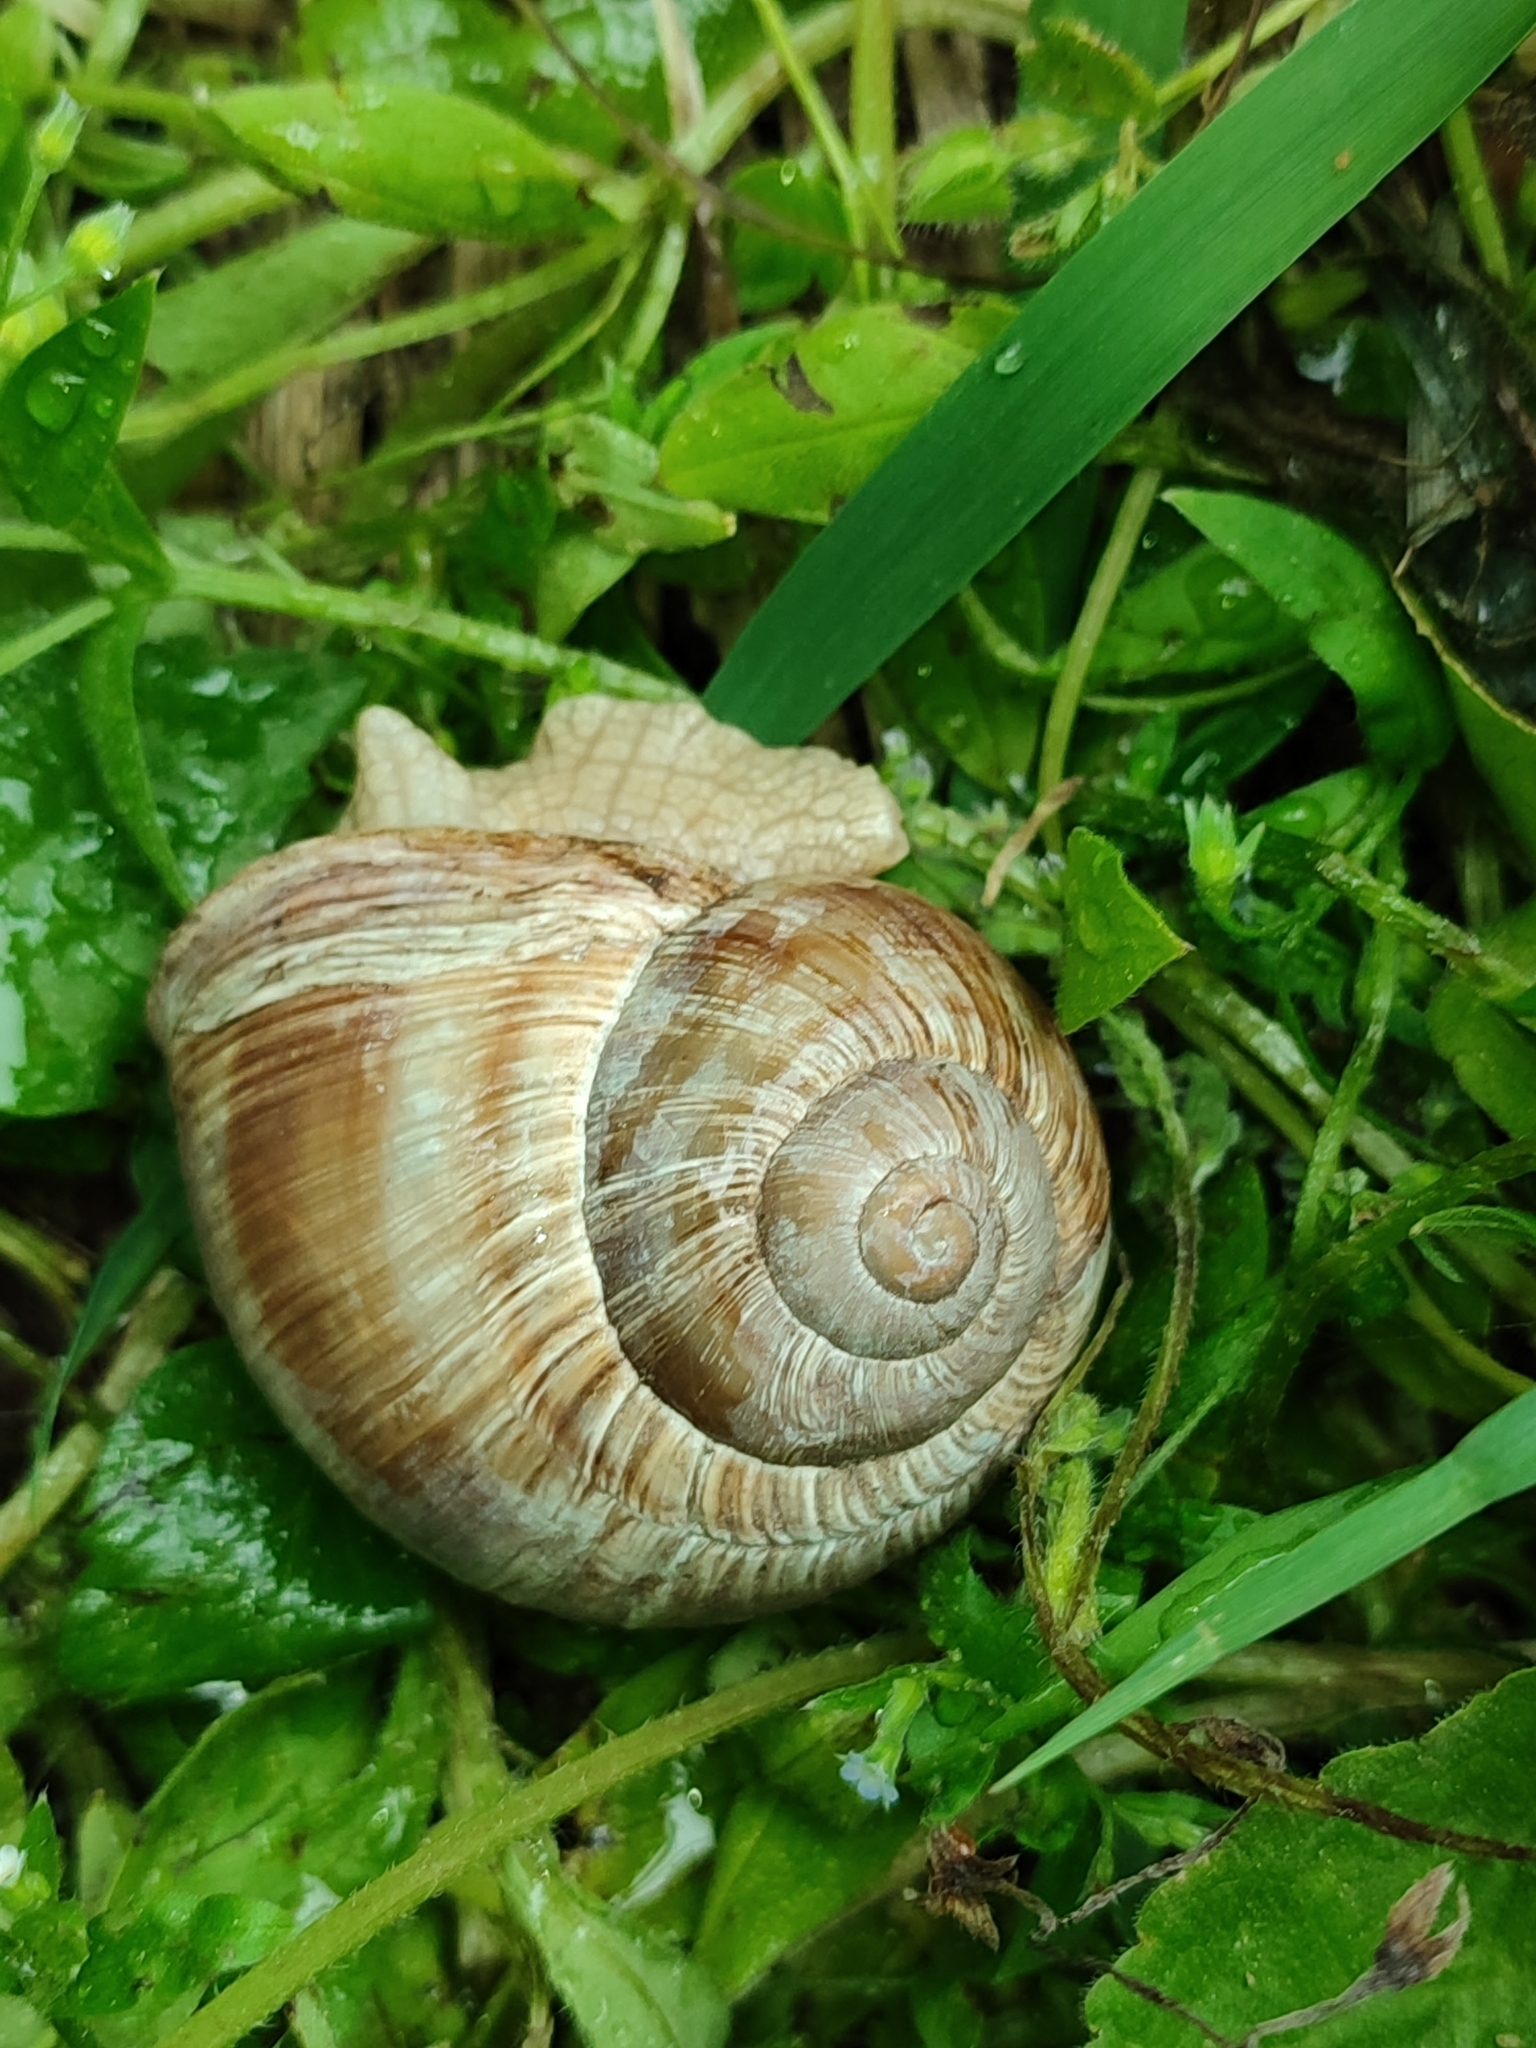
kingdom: Animalia
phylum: Mollusca
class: Gastropoda
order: Stylommatophora
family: Helicidae
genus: Helix
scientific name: Helix pomatia
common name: Roman snail
